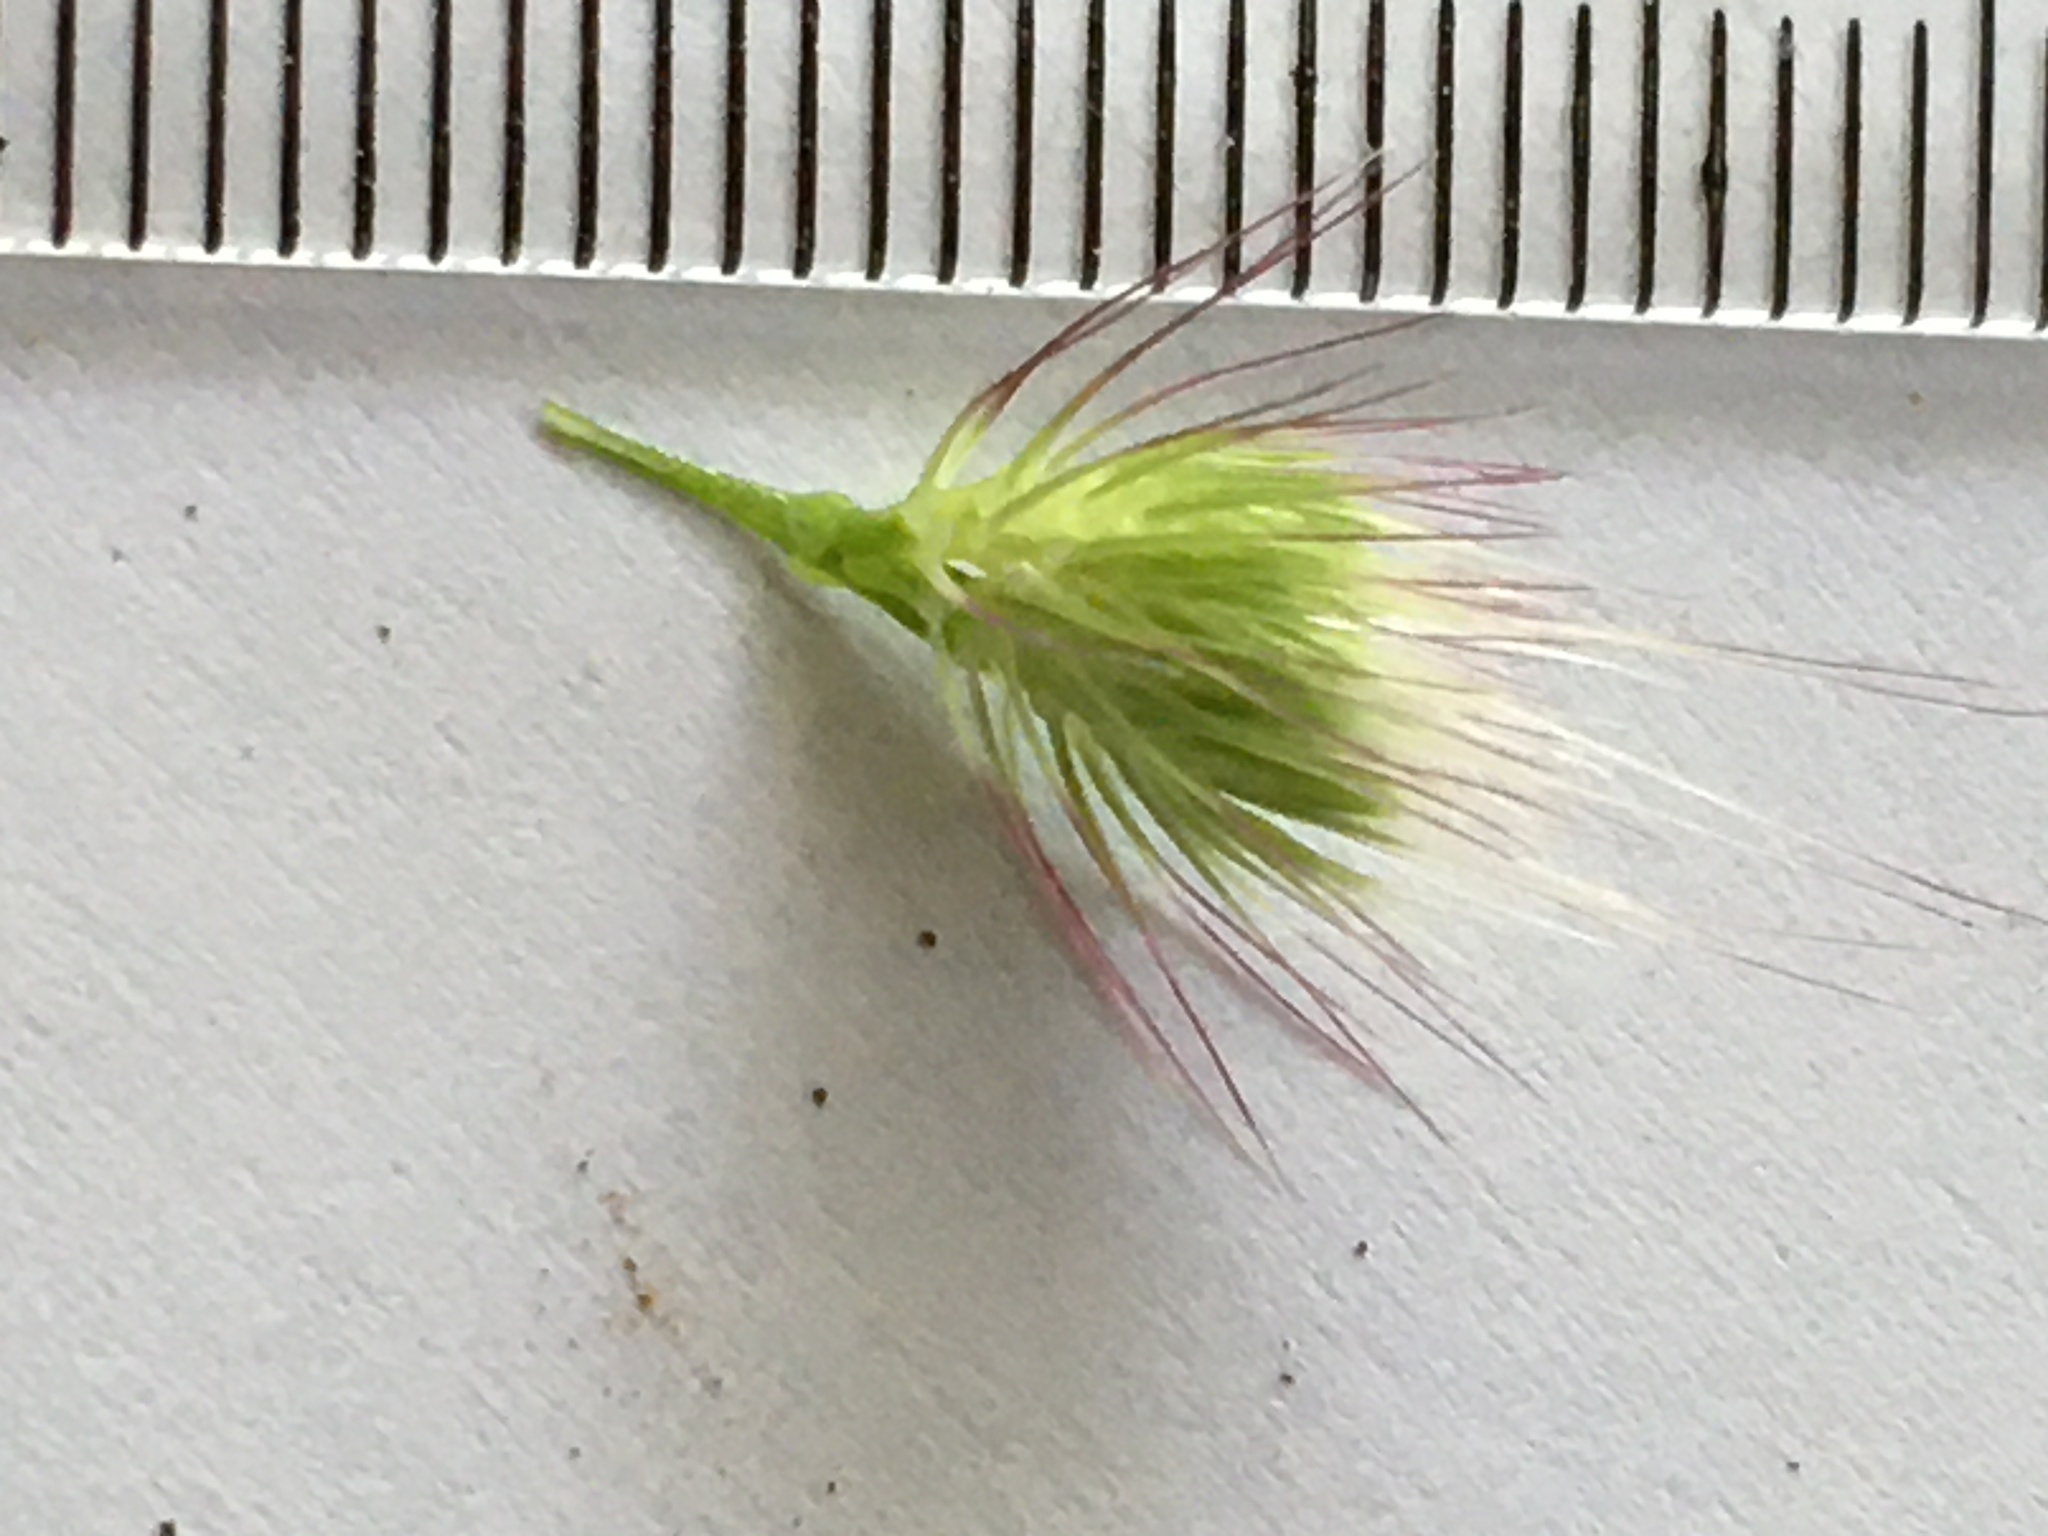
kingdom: Plantae
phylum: Tracheophyta
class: Liliopsida
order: Poales
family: Poaceae
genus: Cynosurus
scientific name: Cynosurus echinatus
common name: Rough dog's-tail
